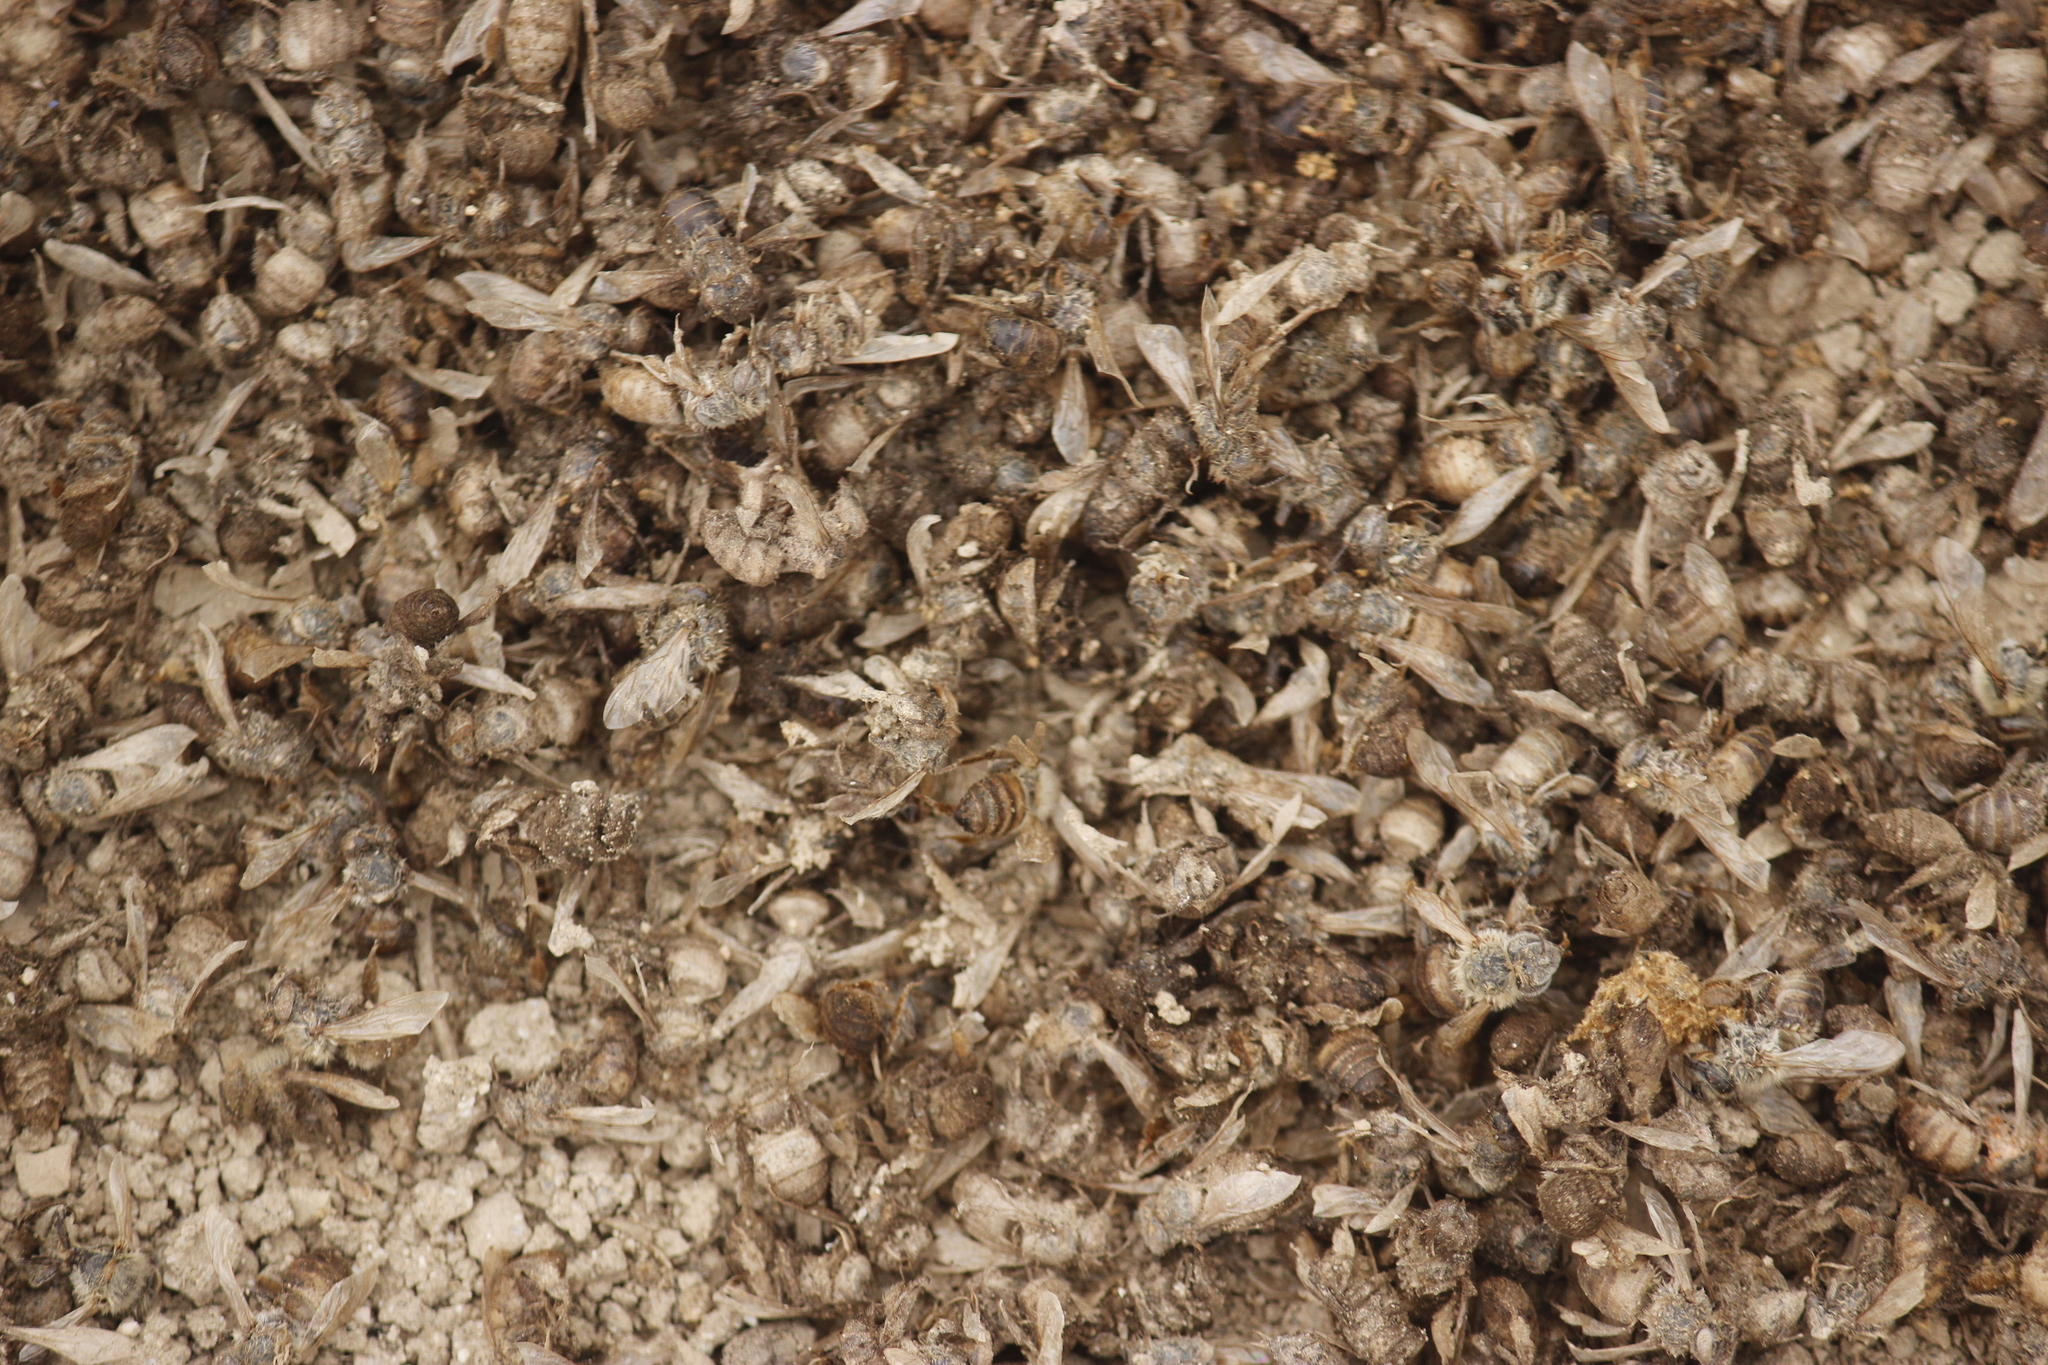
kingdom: Animalia
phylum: Arthropoda
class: Insecta
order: Hymenoptera
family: Apidae
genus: Apis
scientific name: Apis mellifera
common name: Honey bee
